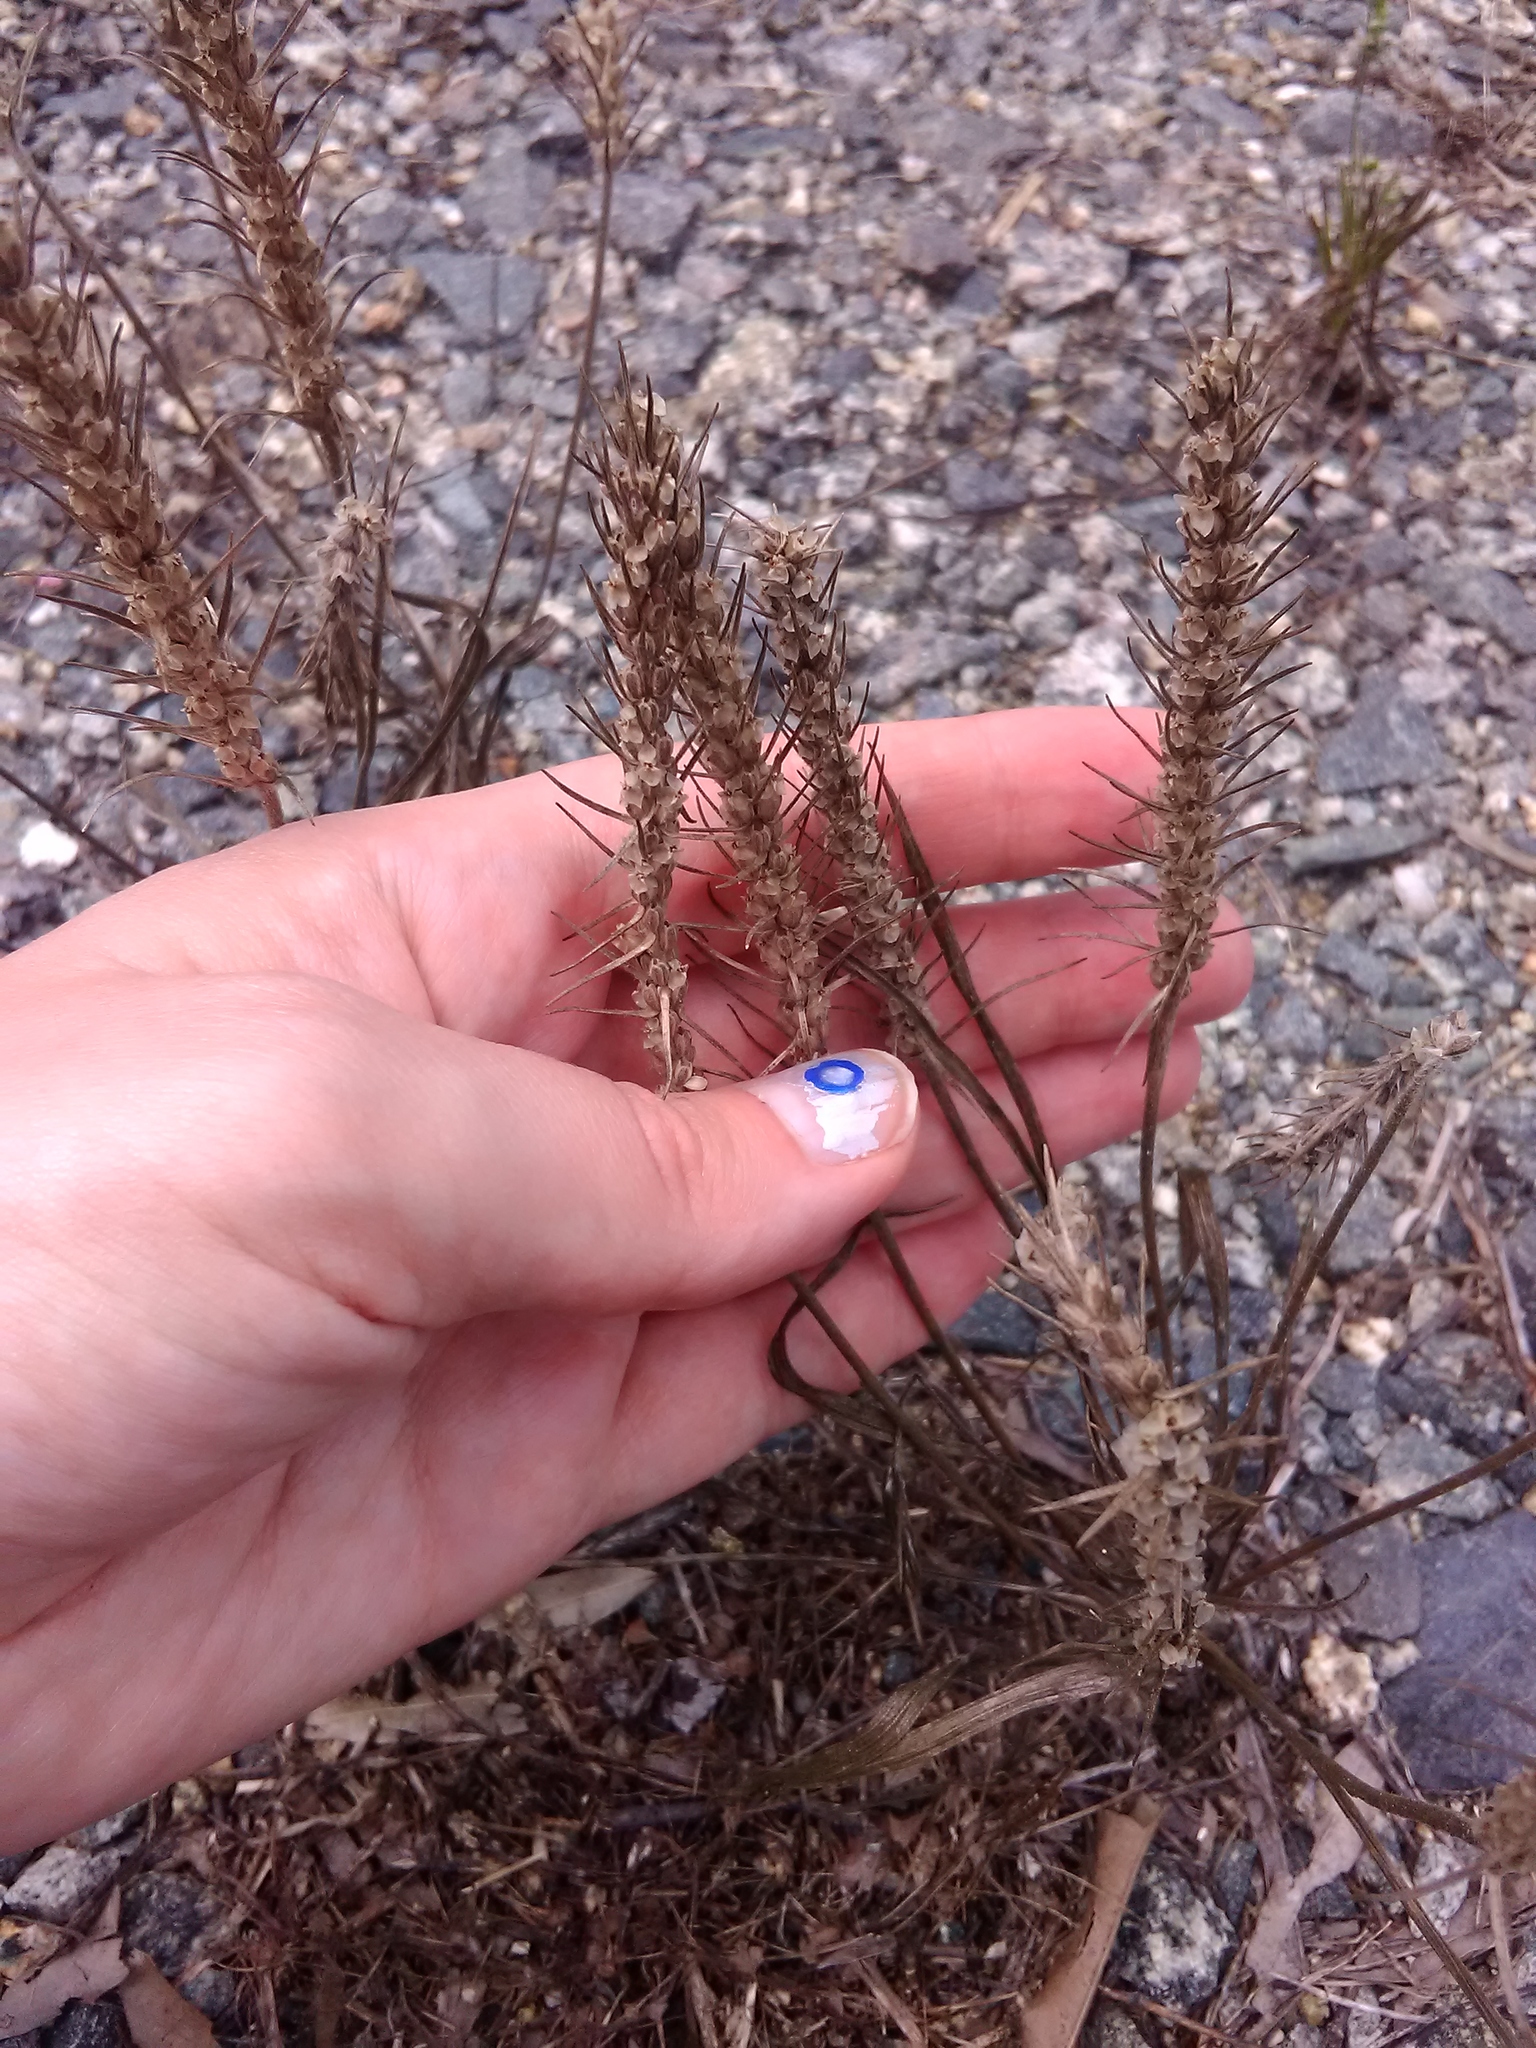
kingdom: Plantae
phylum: Tracheophyta
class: Magnoliopsida
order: Lamiales
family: Plantaginaceae
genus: Plantago
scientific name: Plantago aristata
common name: Bracted plantain
